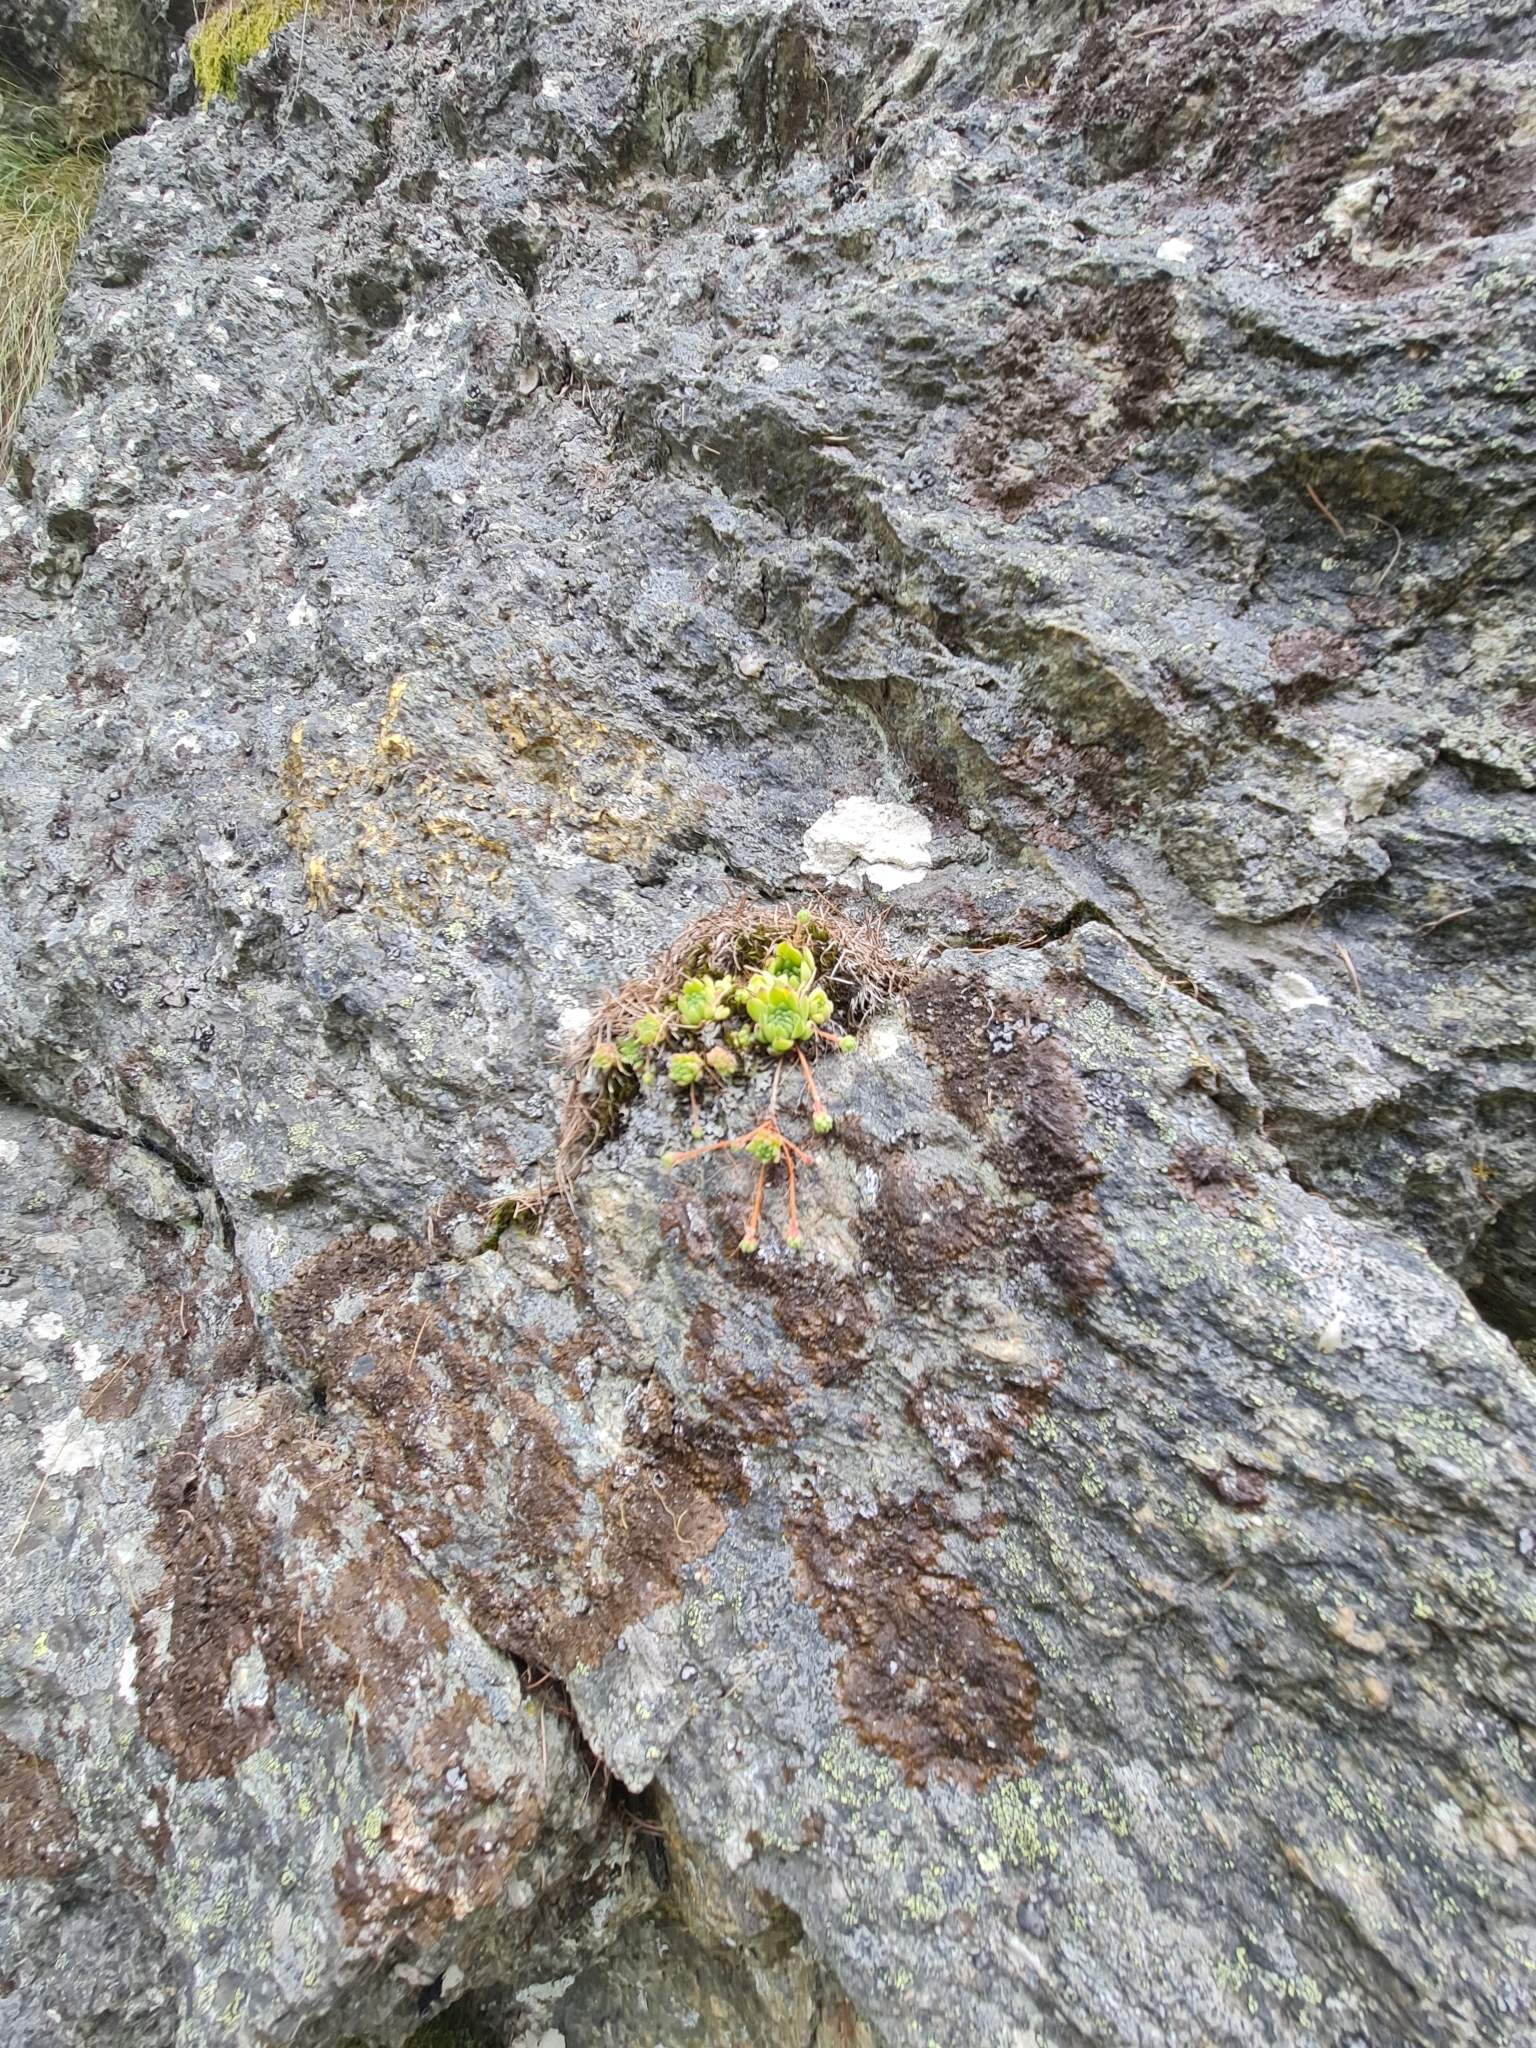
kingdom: Plantae
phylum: Tracheophyta
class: Magnoliopsida
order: Saxifragales
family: Crassulaceae
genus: Sempervivum
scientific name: Sempervivum montanum
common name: Mountain house-leek
